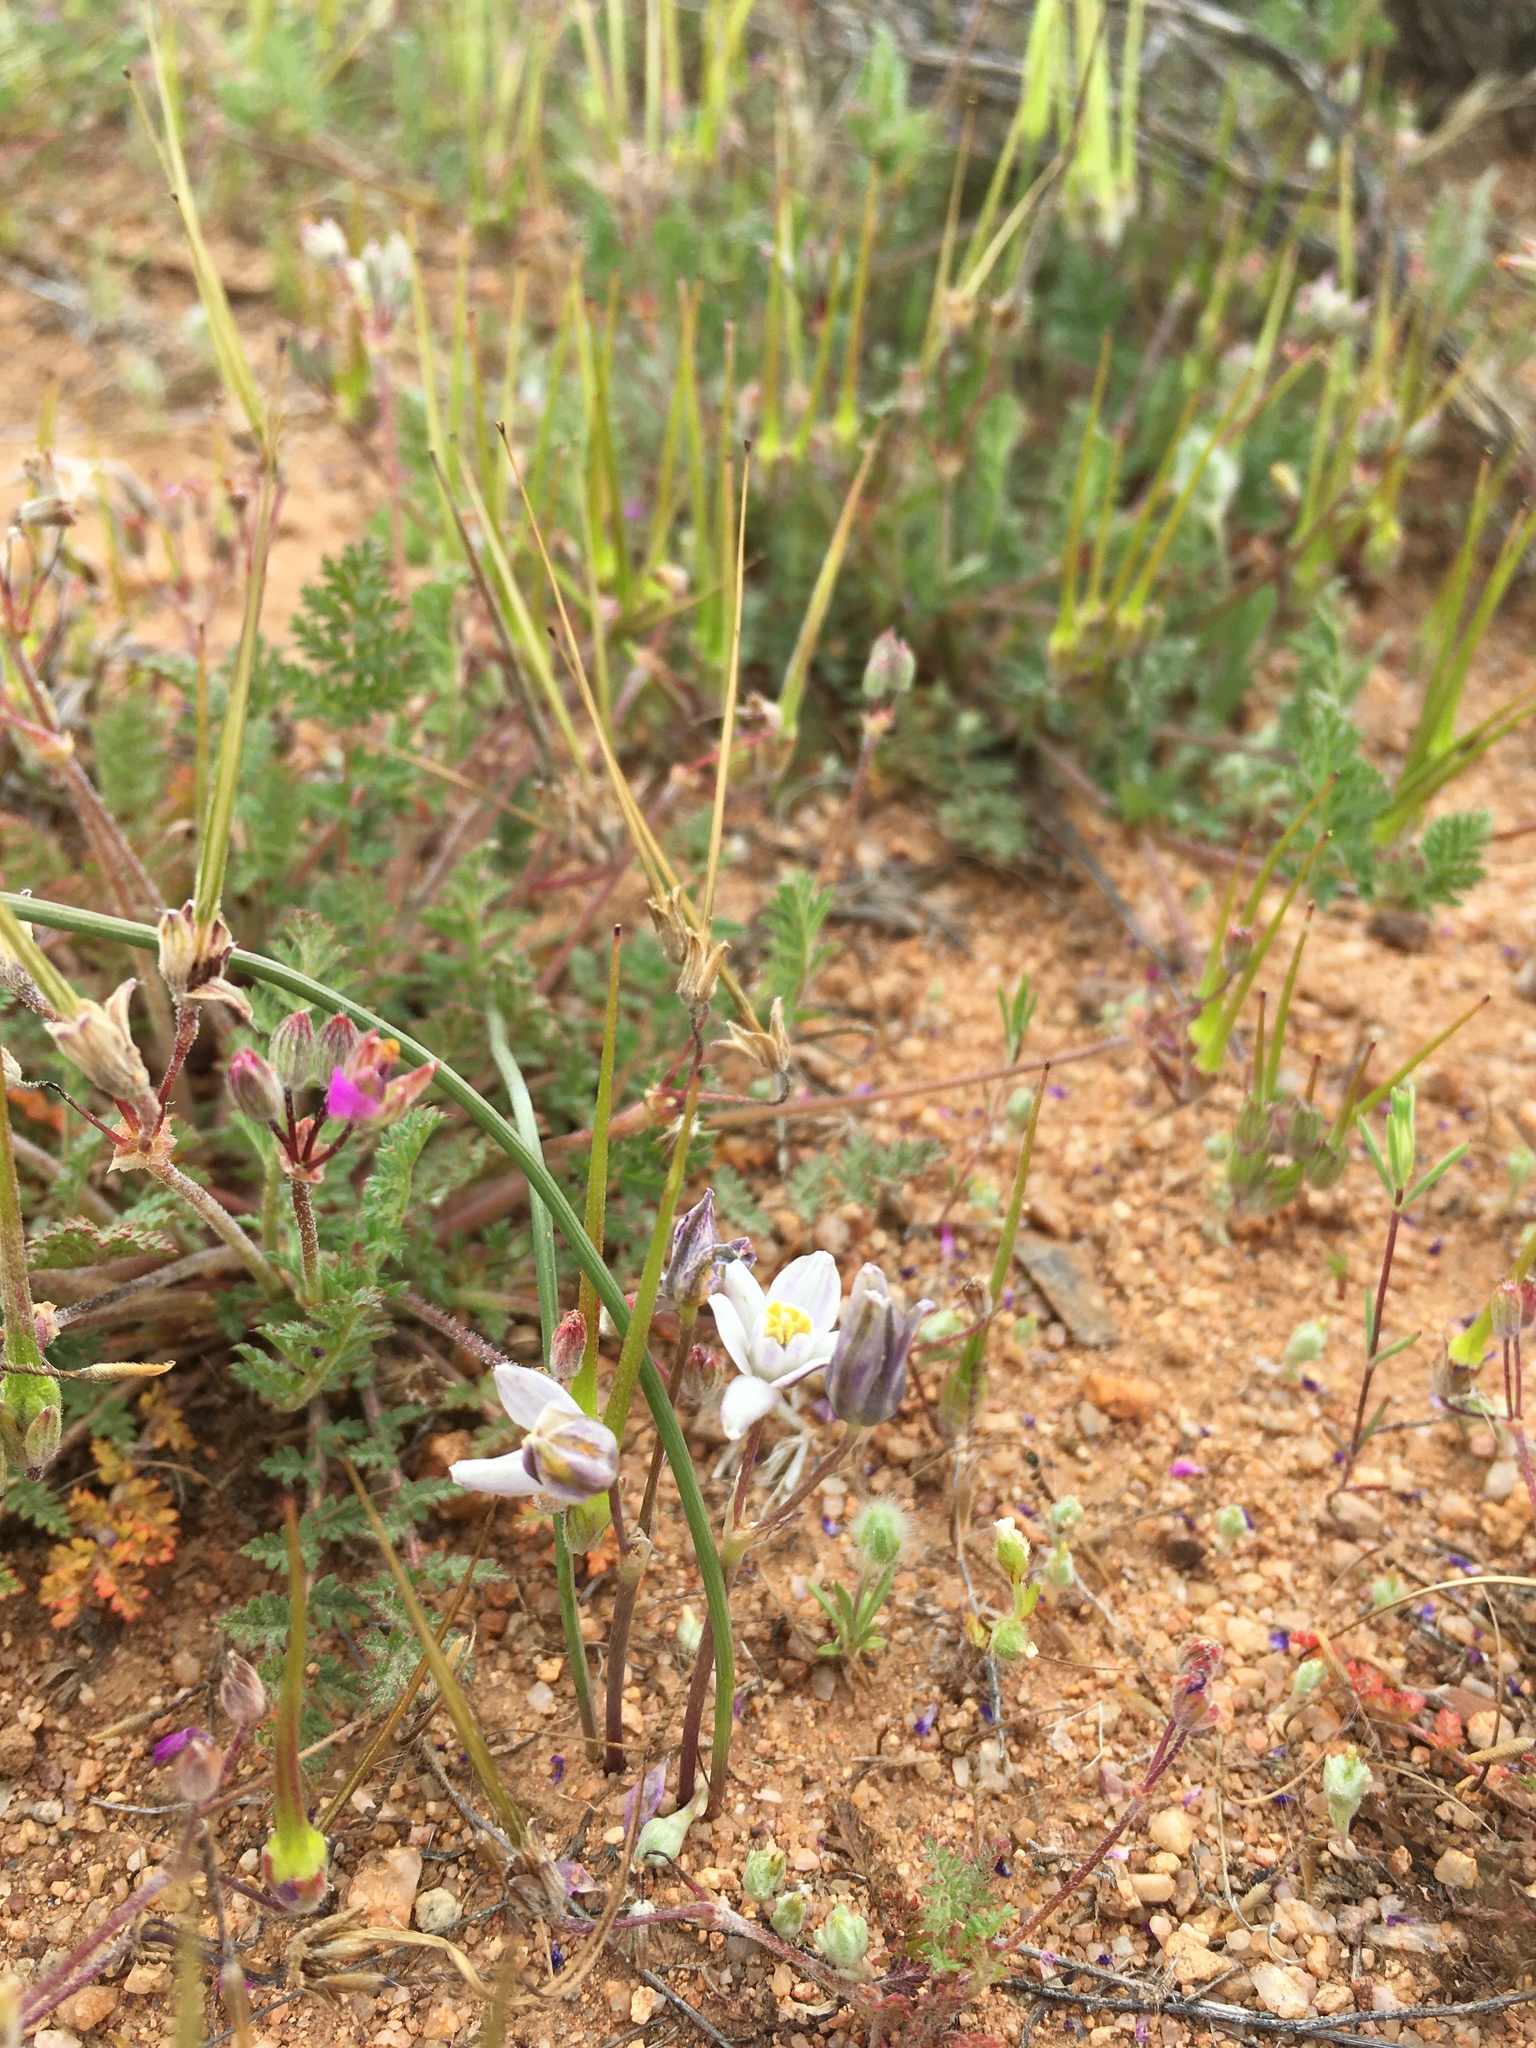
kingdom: Plantae
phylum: Tracheophyta
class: Liliopsida
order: Asparagales
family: Asparagaceae
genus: Muilla
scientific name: Muilla lordsburgana
